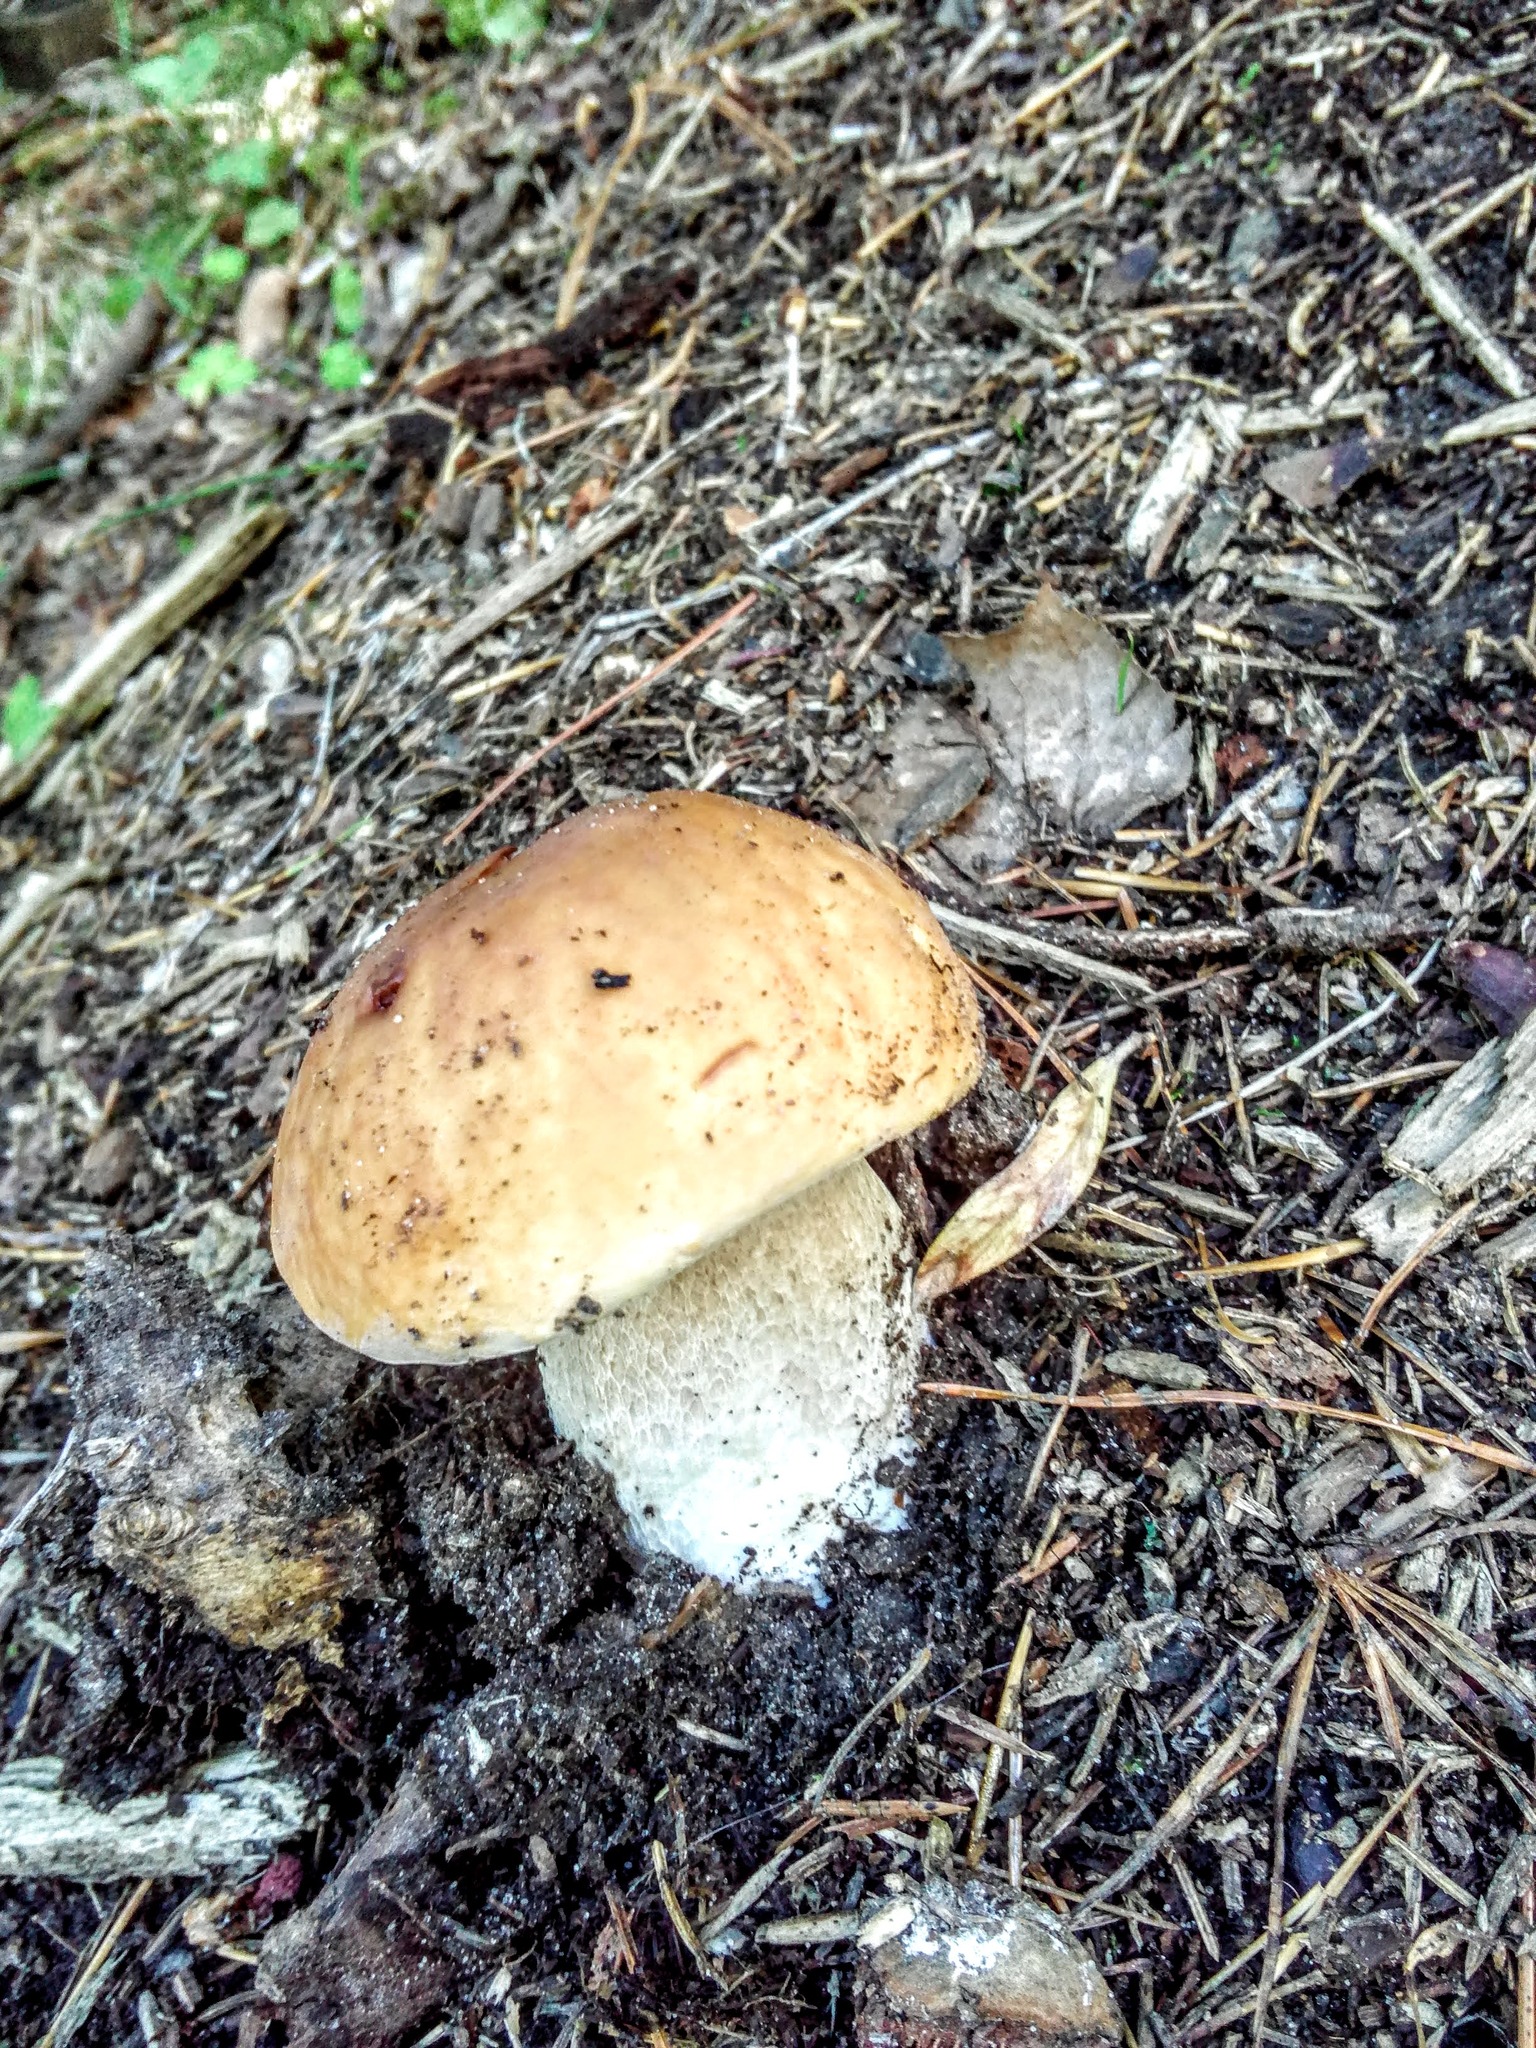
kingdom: Fungi
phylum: Basidiomycota
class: Agaricomycetes
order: Boletales
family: Boletaceae
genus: Boletus
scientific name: Boletus edulis
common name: Cep
